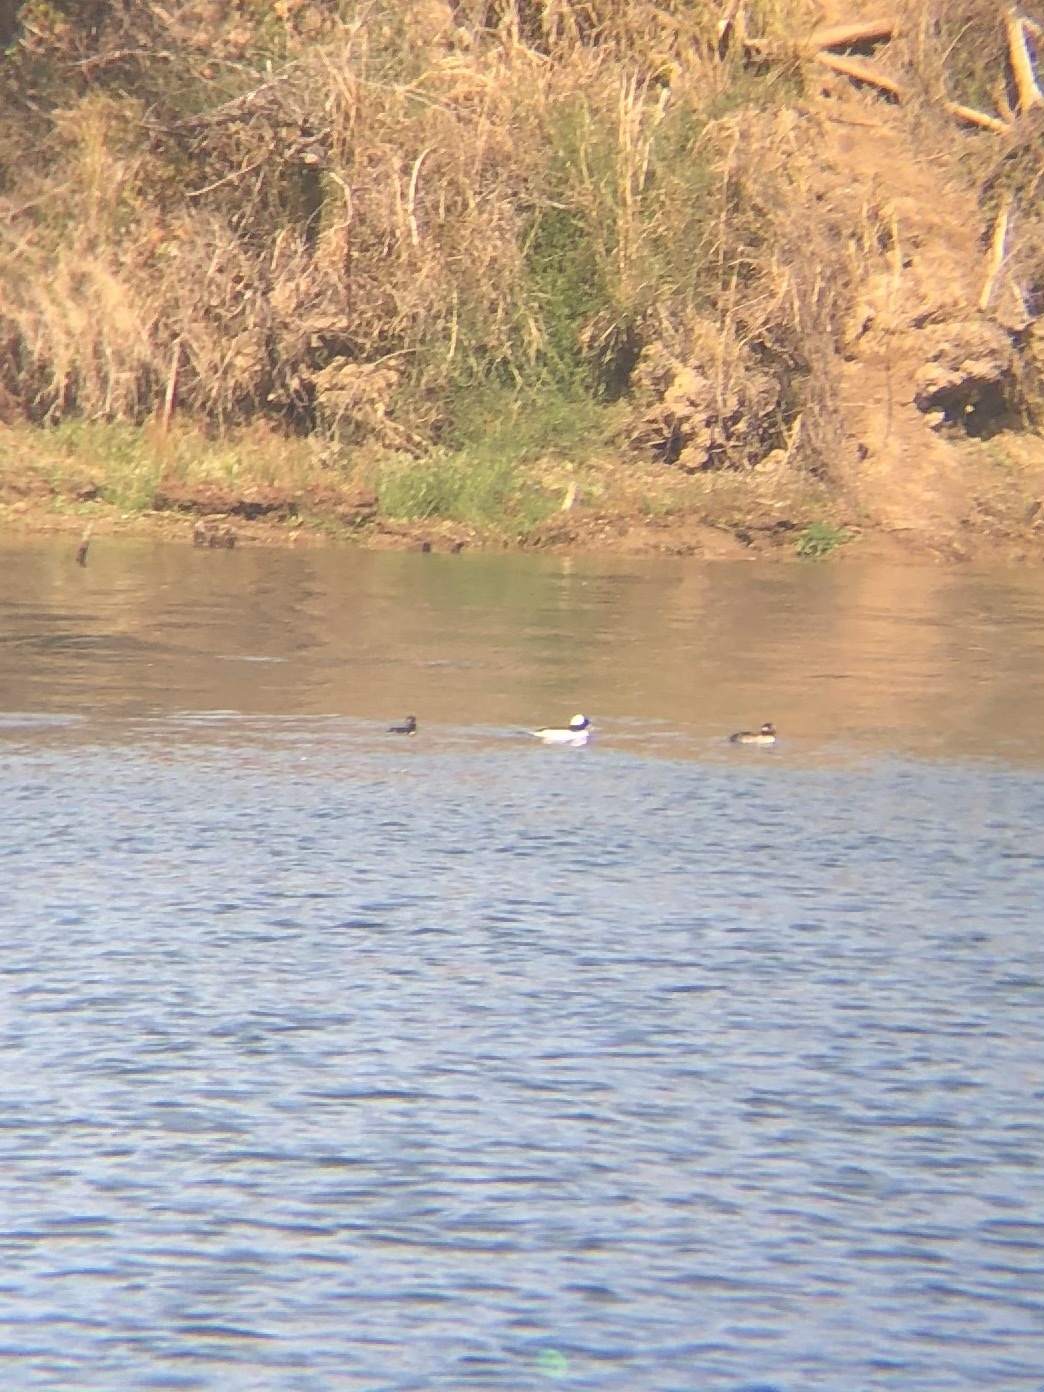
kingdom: Animalia
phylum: Chordata
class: Aves
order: Anseriformes
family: Anatidae
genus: Bucephala
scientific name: Bucephala albeola
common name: Bufflehead
